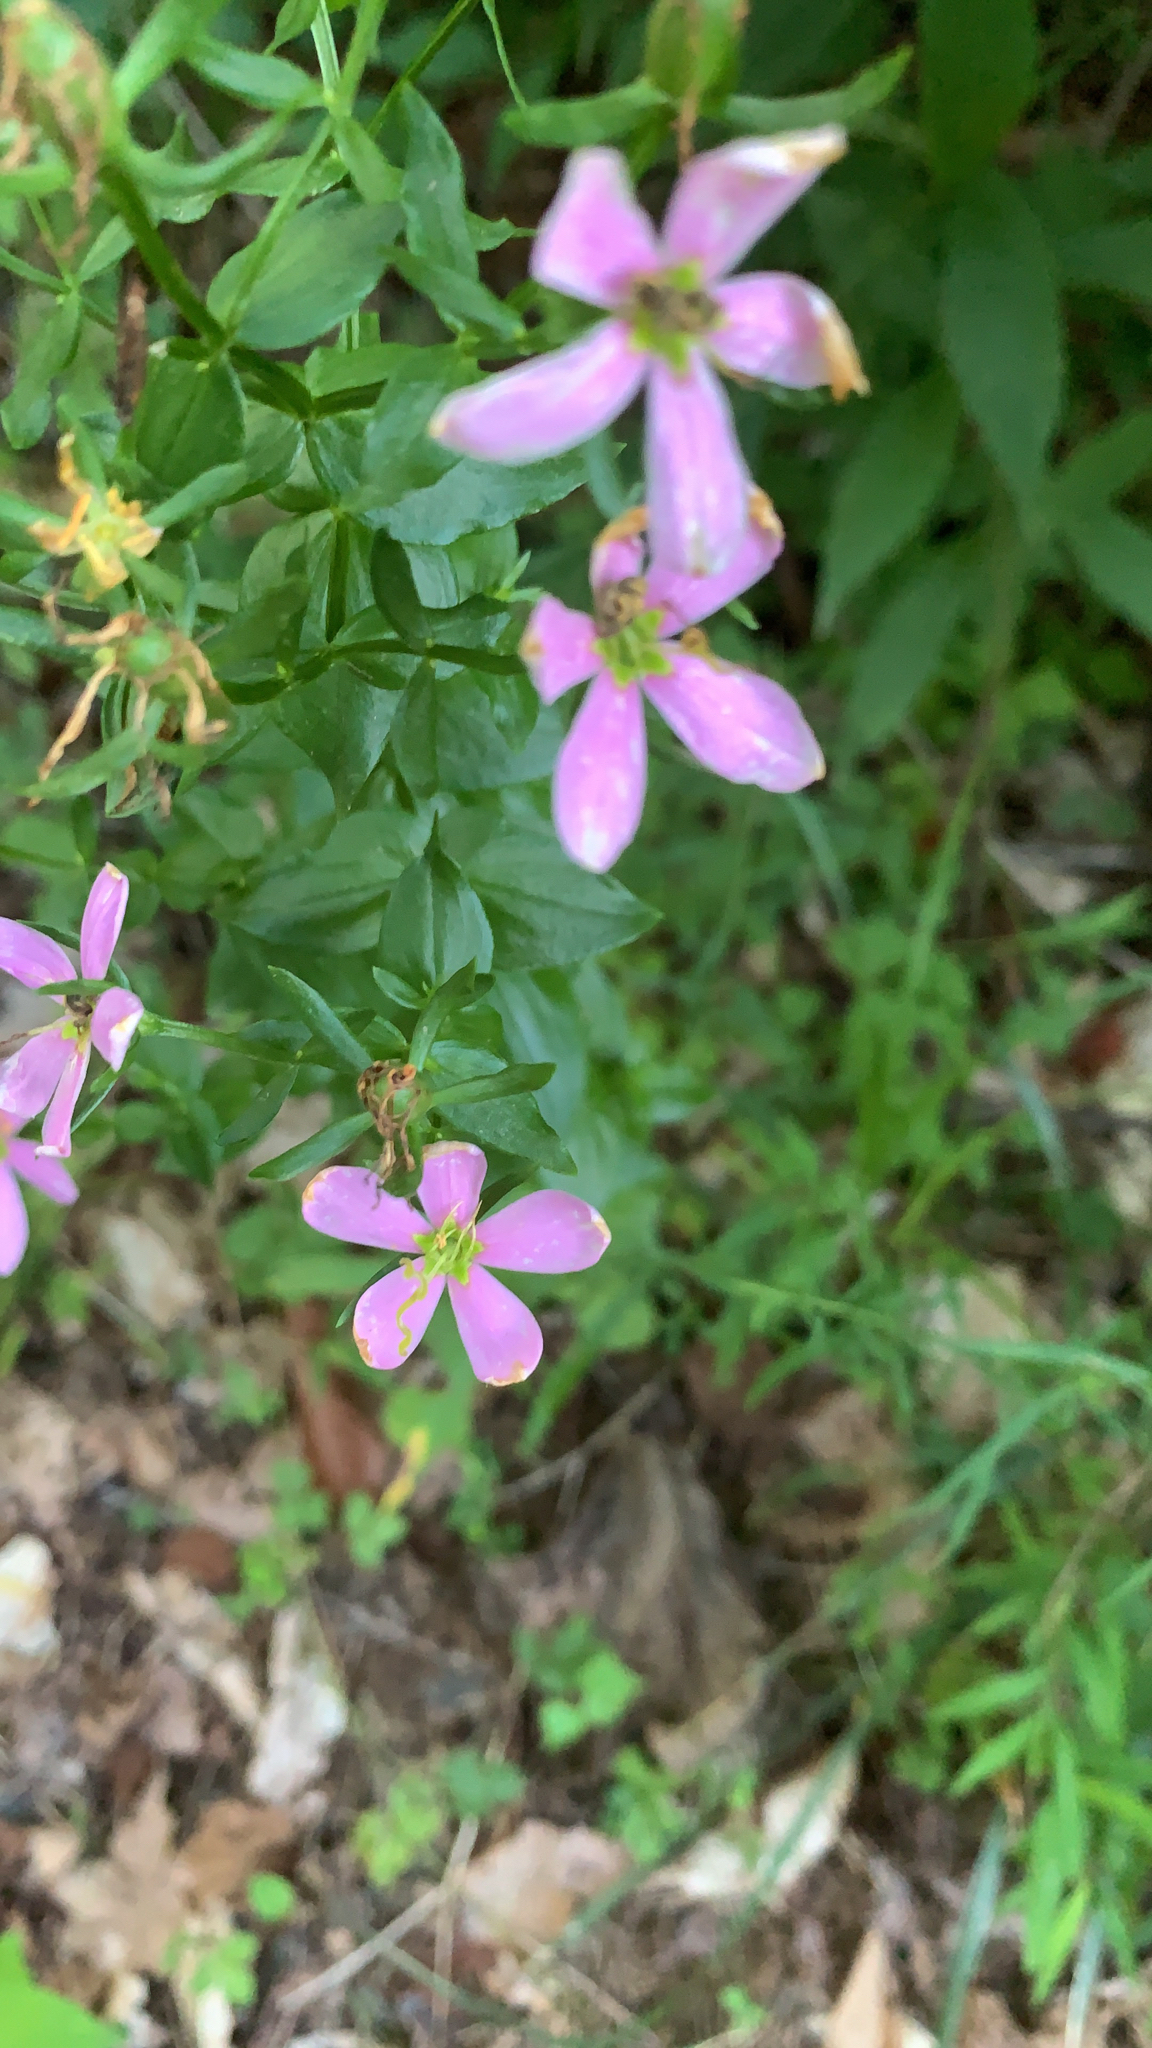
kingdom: Plantae
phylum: Tracheophyta
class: Magnoliopsida
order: Gentianales
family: Gentianaceae
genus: Sabatia
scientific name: Sabatia angularis
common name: Rose-pink
